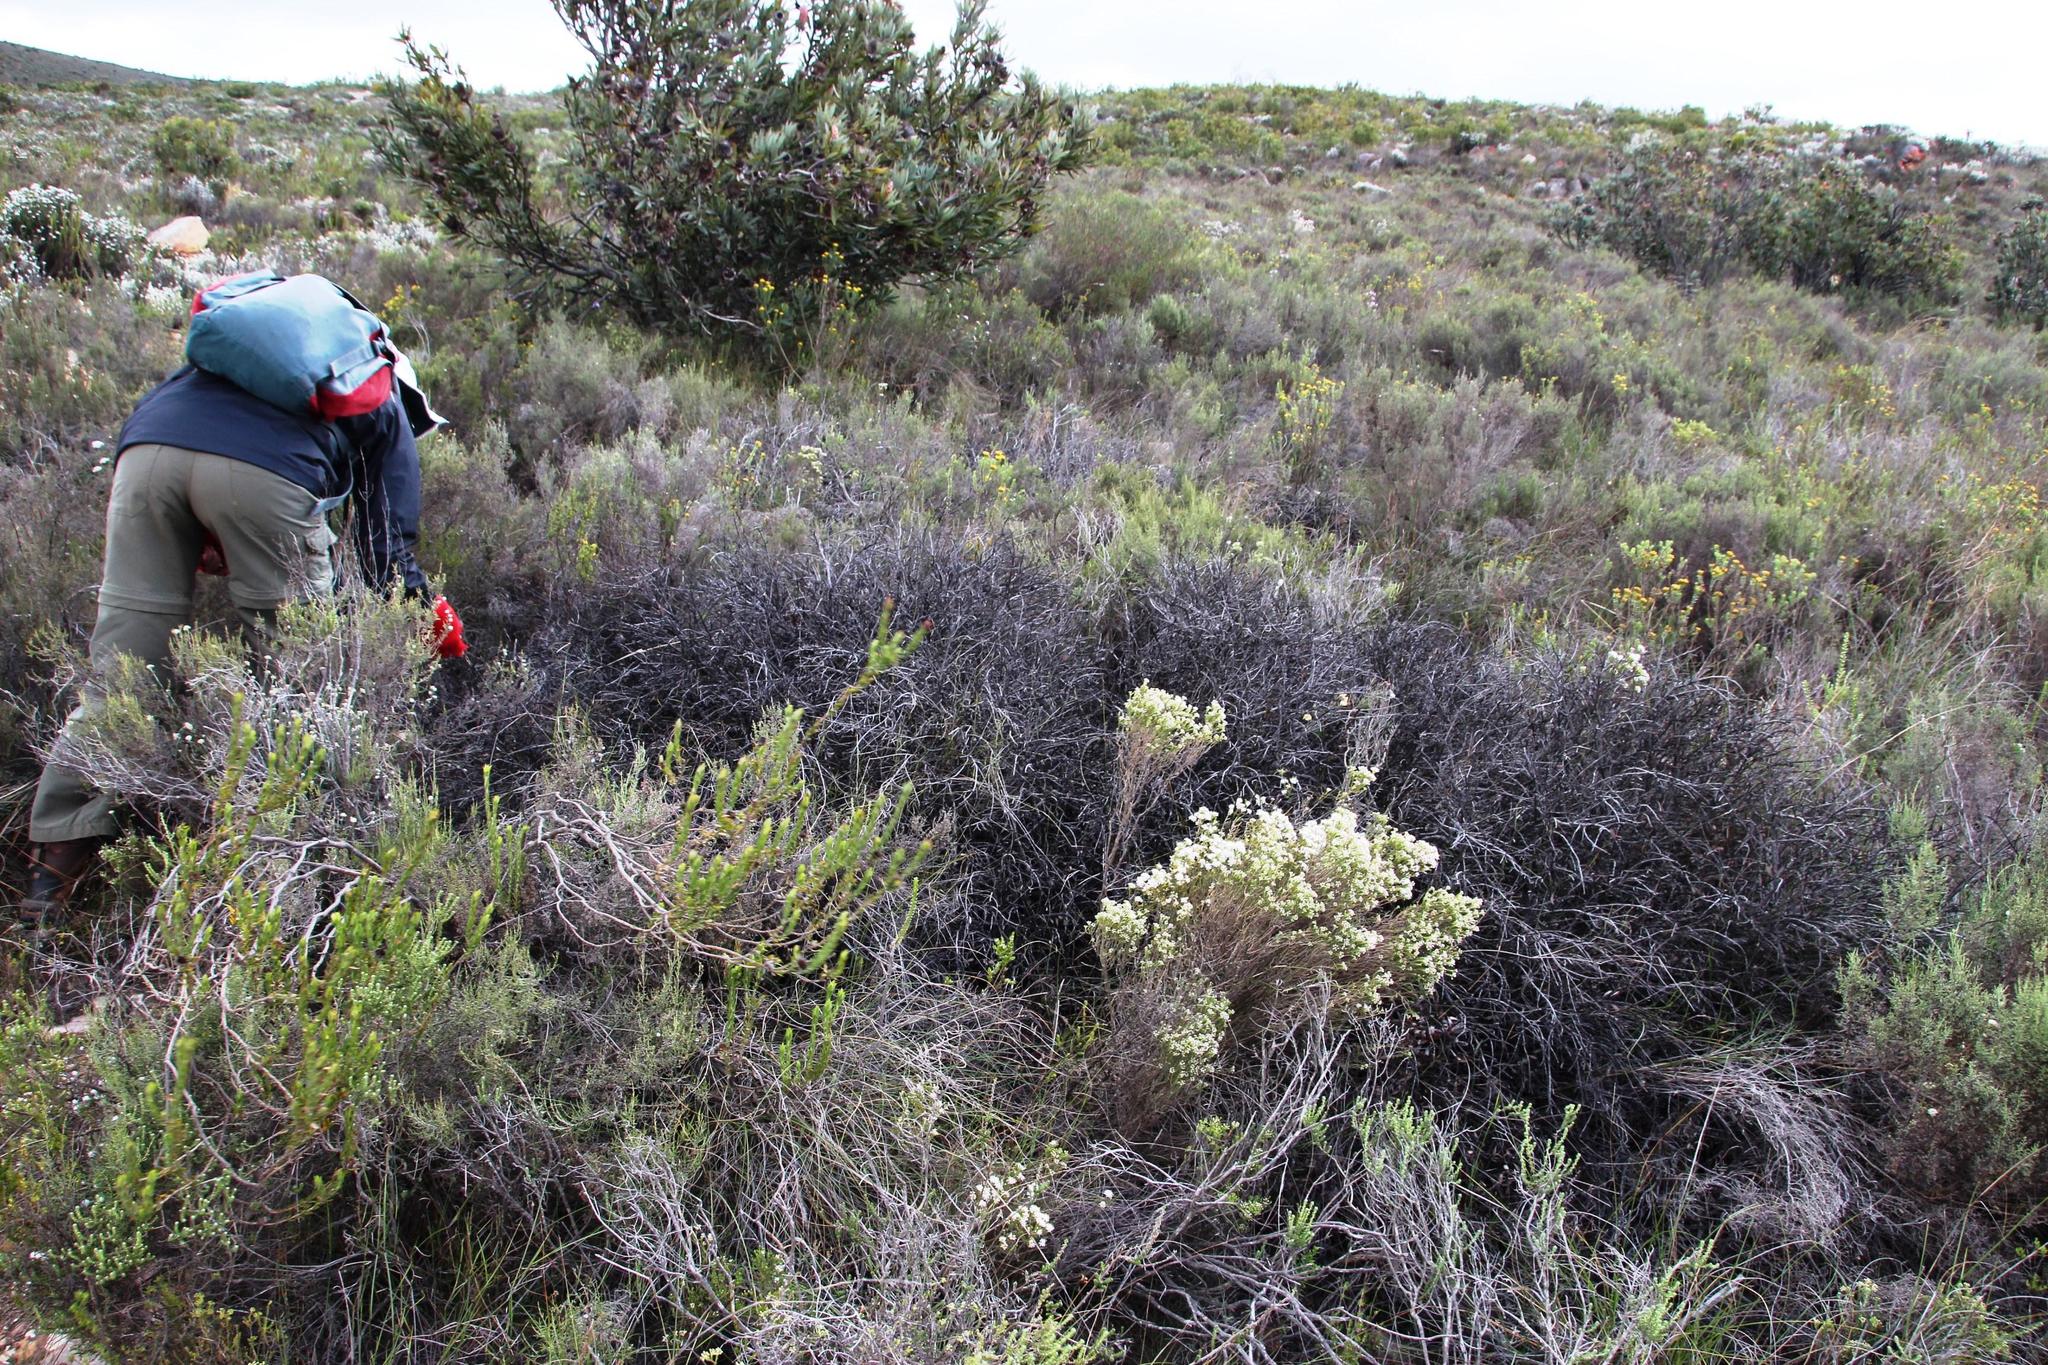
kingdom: Plantae
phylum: Tracheophyta
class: Magnoliopsida
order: Proteales
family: Proteaceae
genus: Protea
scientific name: Protea sulphurea
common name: Sulphur sugarbush
